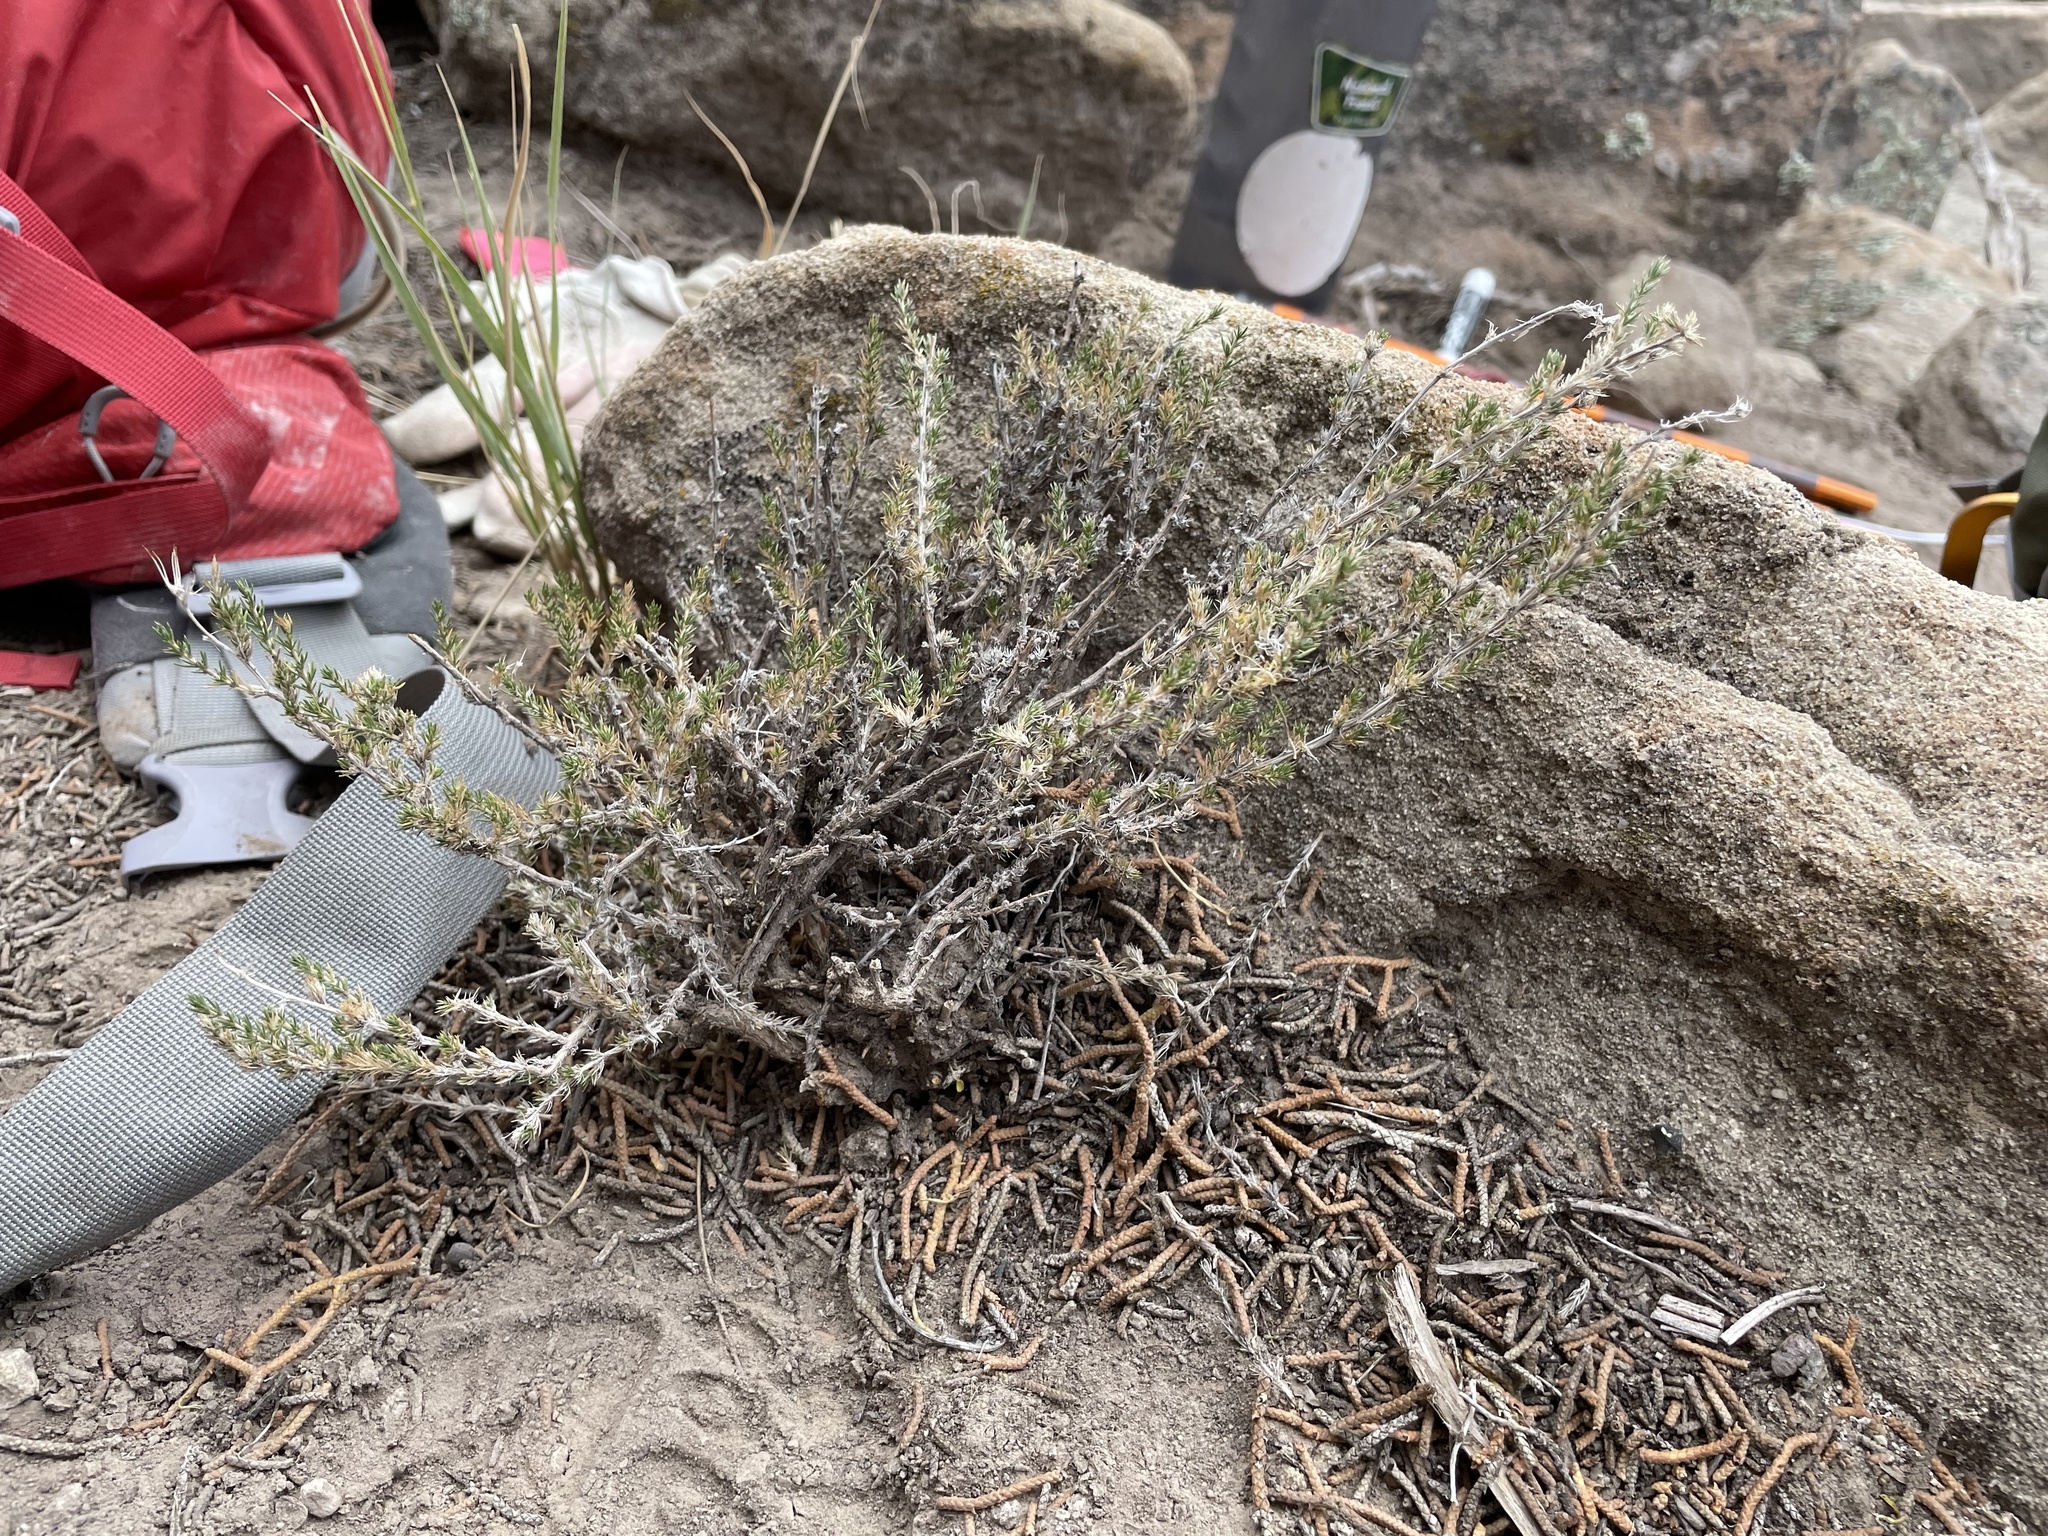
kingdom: Plantae
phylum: Tracheophyta
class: Magnoliopsida
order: Ericales
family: Polemoniaceae
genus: Linanthus
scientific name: Linanthus pungens
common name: Granite prickly phlox
